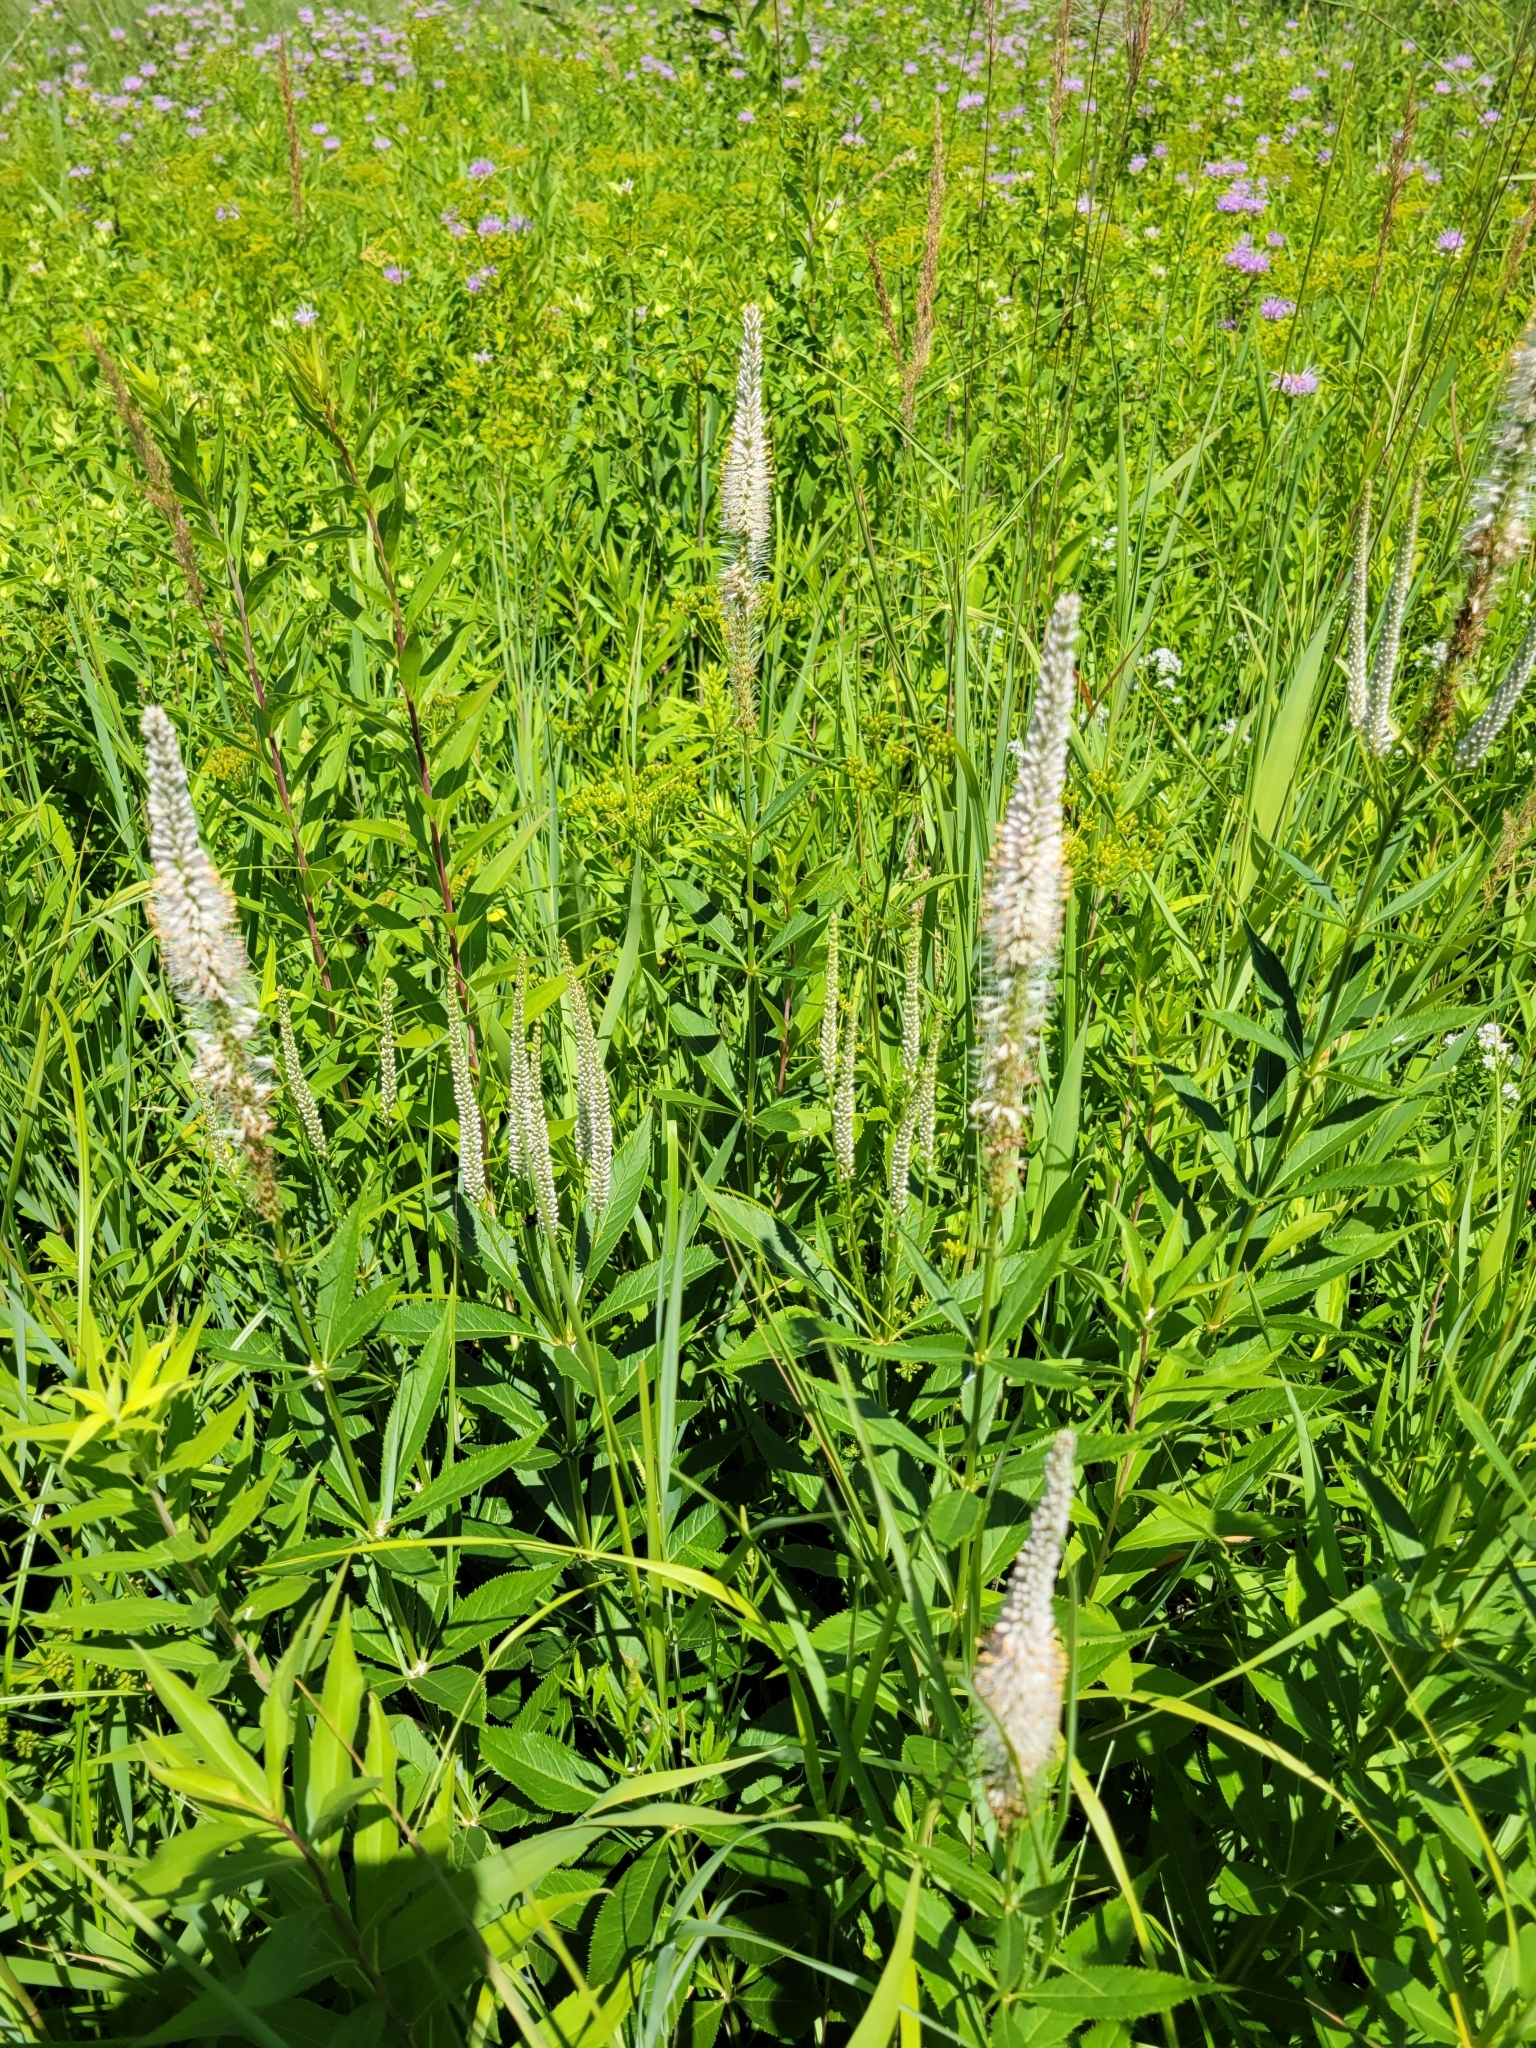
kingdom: Plantae
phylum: Tracheophyta
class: Magnoliopsida
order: Lamiales
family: Plantaginaceae
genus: Veronicastrum
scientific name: Veronicastrum virginicum
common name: Blackroot
